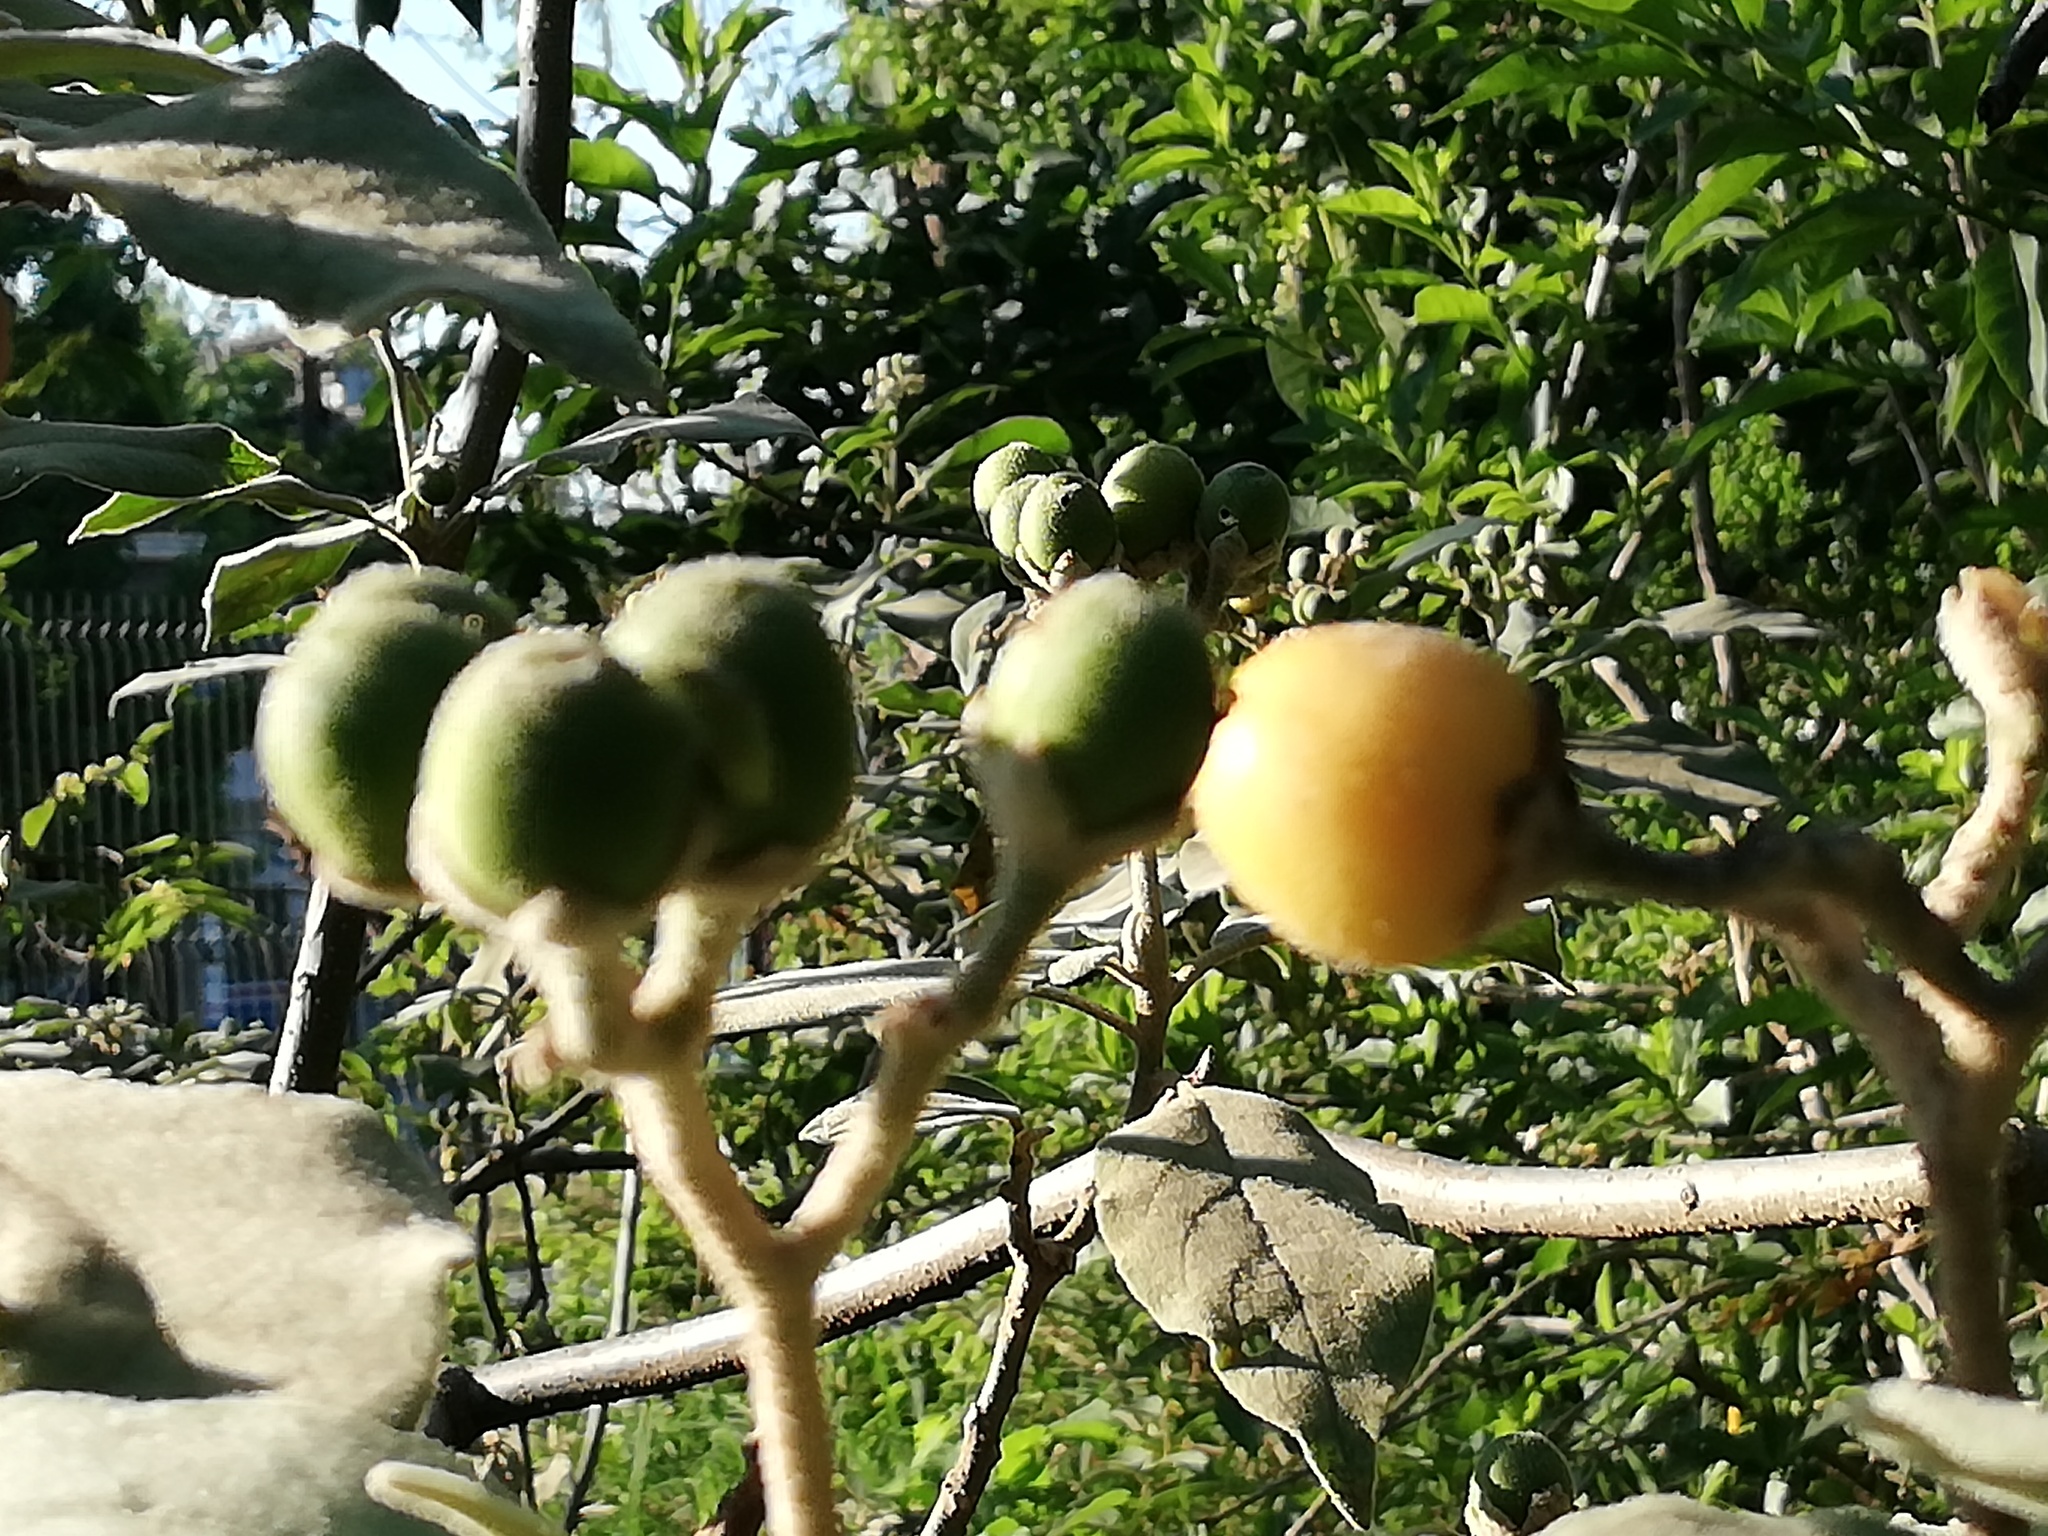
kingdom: Plantae
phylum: Tracheophyta
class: Magnoliopsida
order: Solanales
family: Solanaceae
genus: Solanum
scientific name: Solanum erianthum
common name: Tobacco-tree
